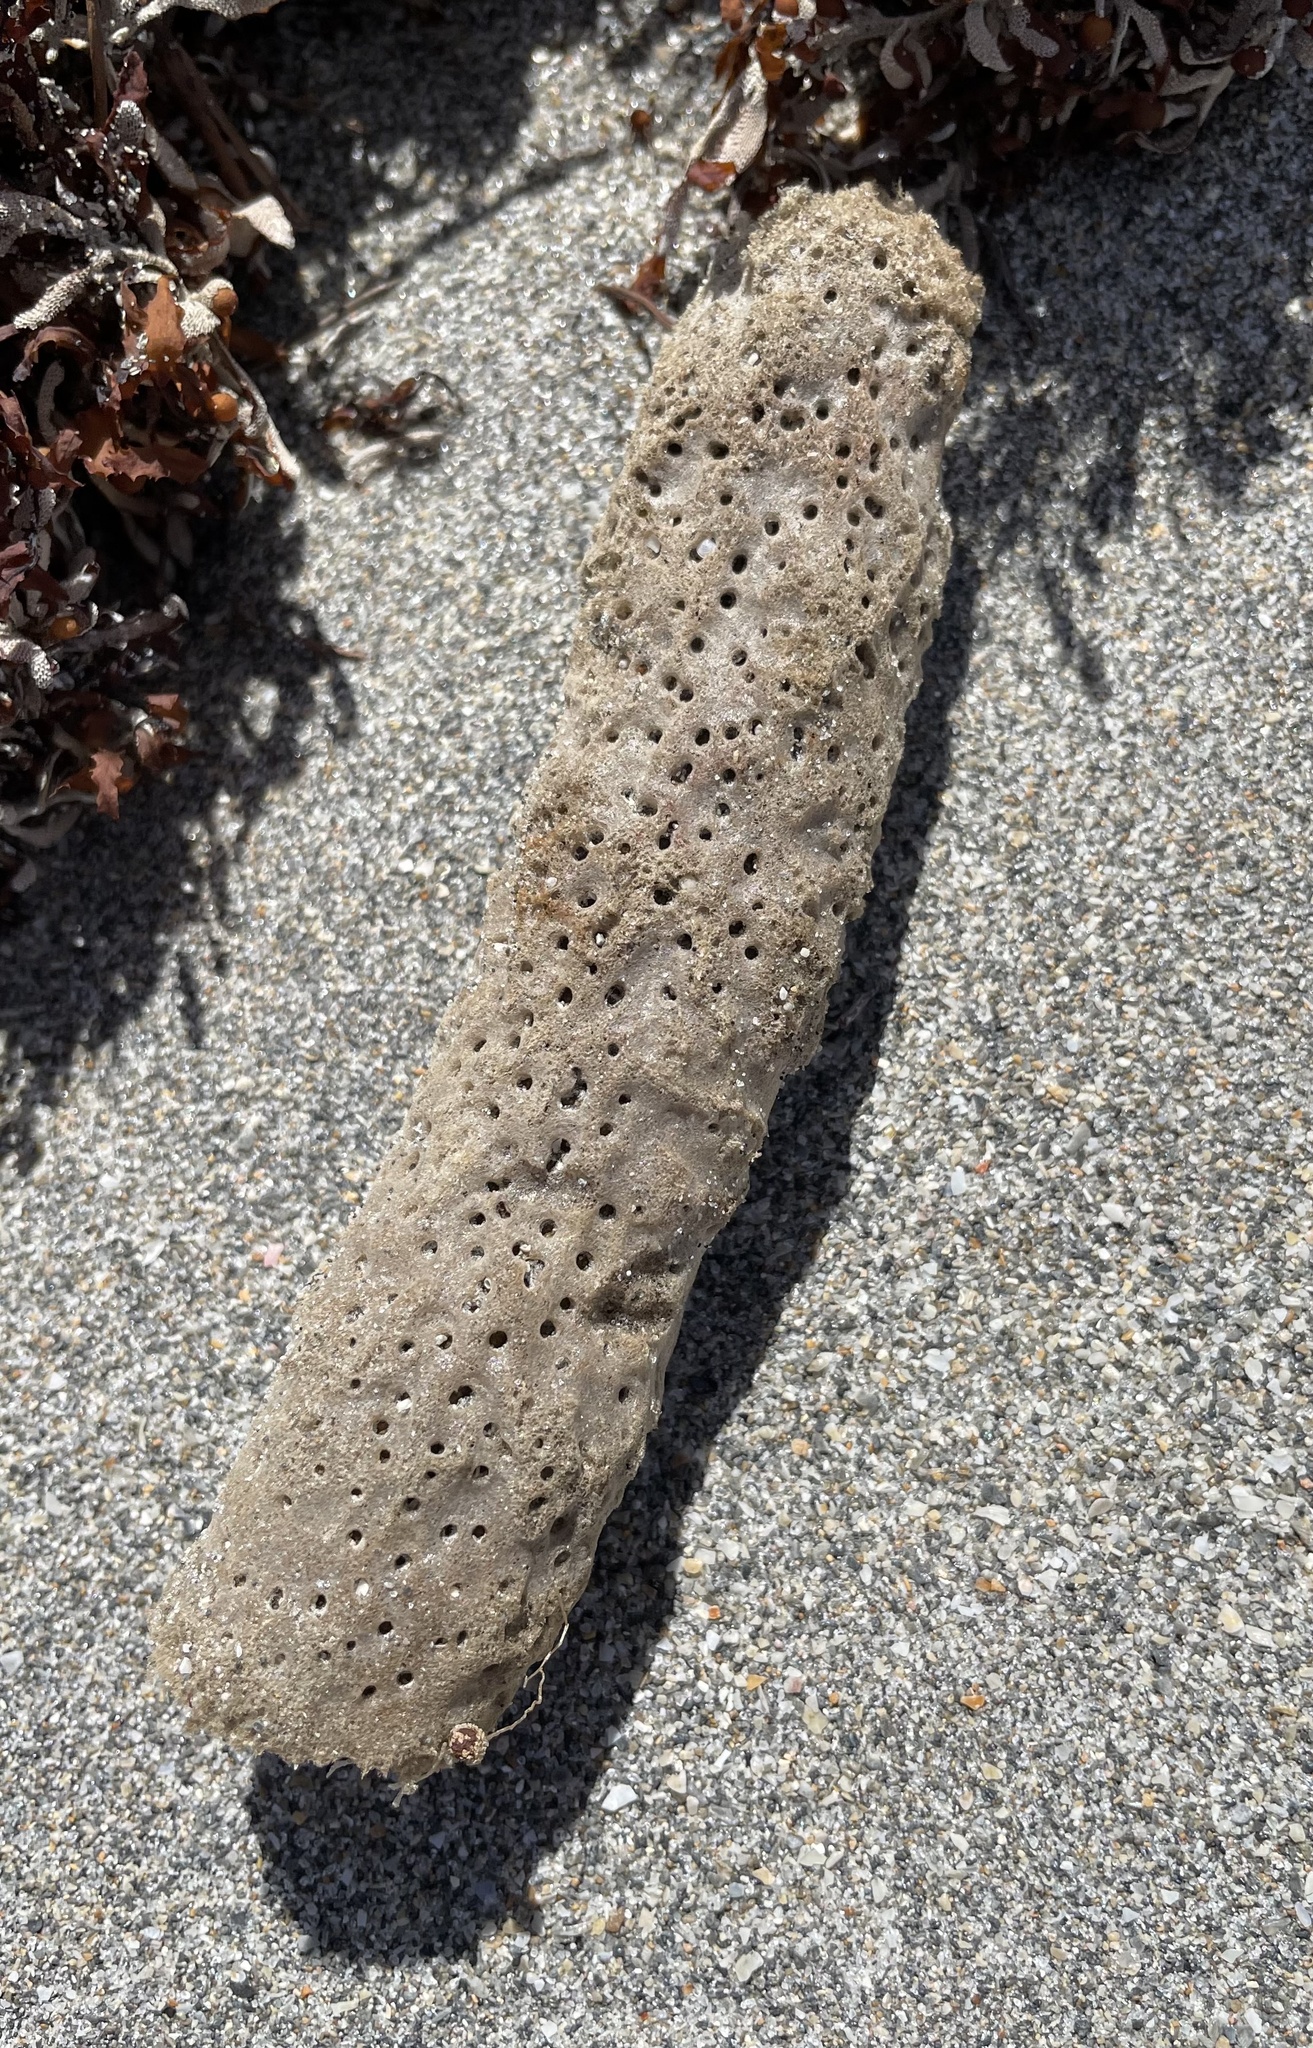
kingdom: Animalia
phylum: Porifera
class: Demospongiae
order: Haplosclerida
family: Callyspongiidae
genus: Callyspongia
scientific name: Callyspongia aculeata
